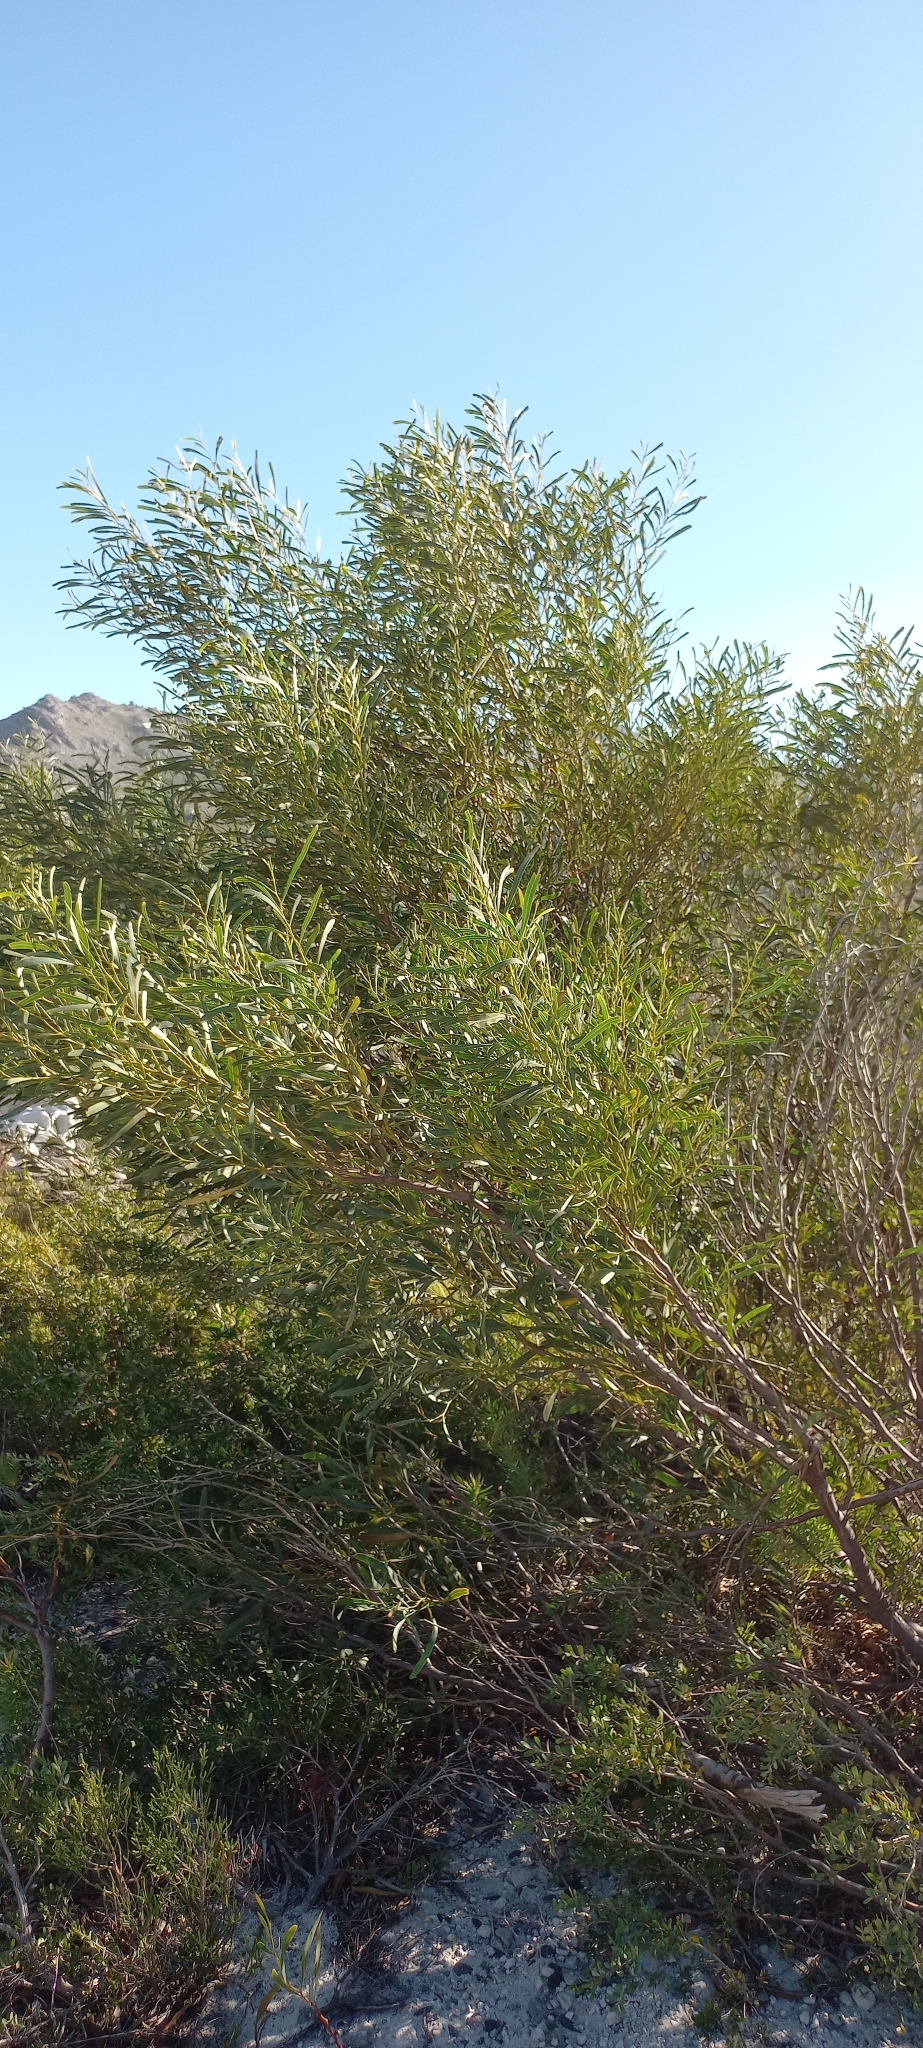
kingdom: Plantae
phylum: Tracheophyta
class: Magnoliopsida
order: Fabales
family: Fabaceae
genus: Acacia
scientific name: Acacia saligna
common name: Orange wattle
